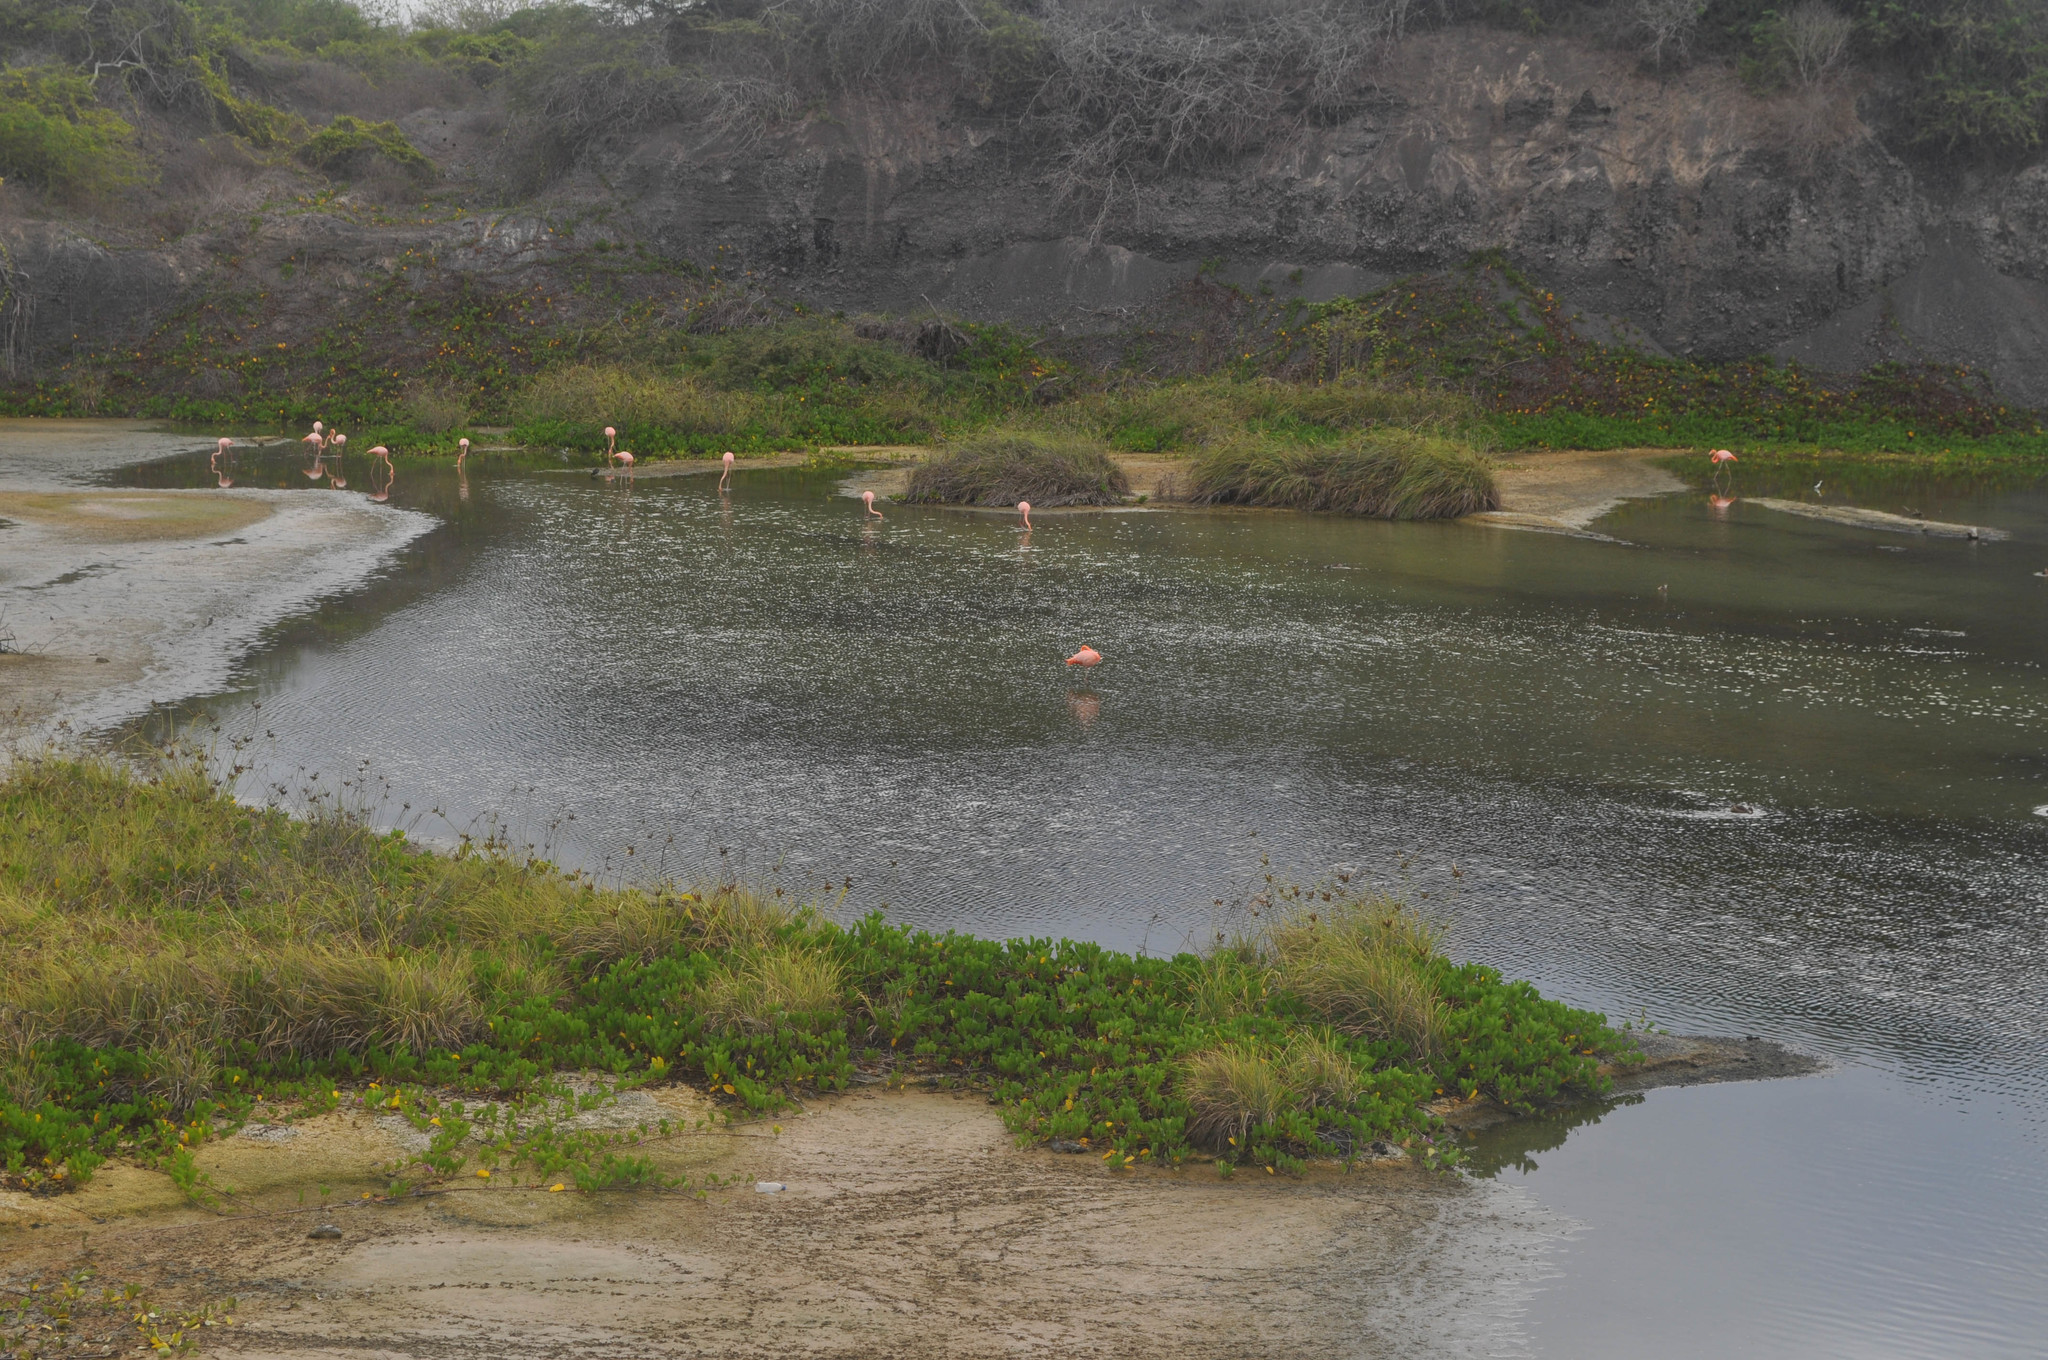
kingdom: Animalia
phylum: Chordata
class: Aves
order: Phoenicopteriformes
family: Phoenicopteridae
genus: Phoenicopterus
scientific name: Phoenicopterus ruber
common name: American flamingo
